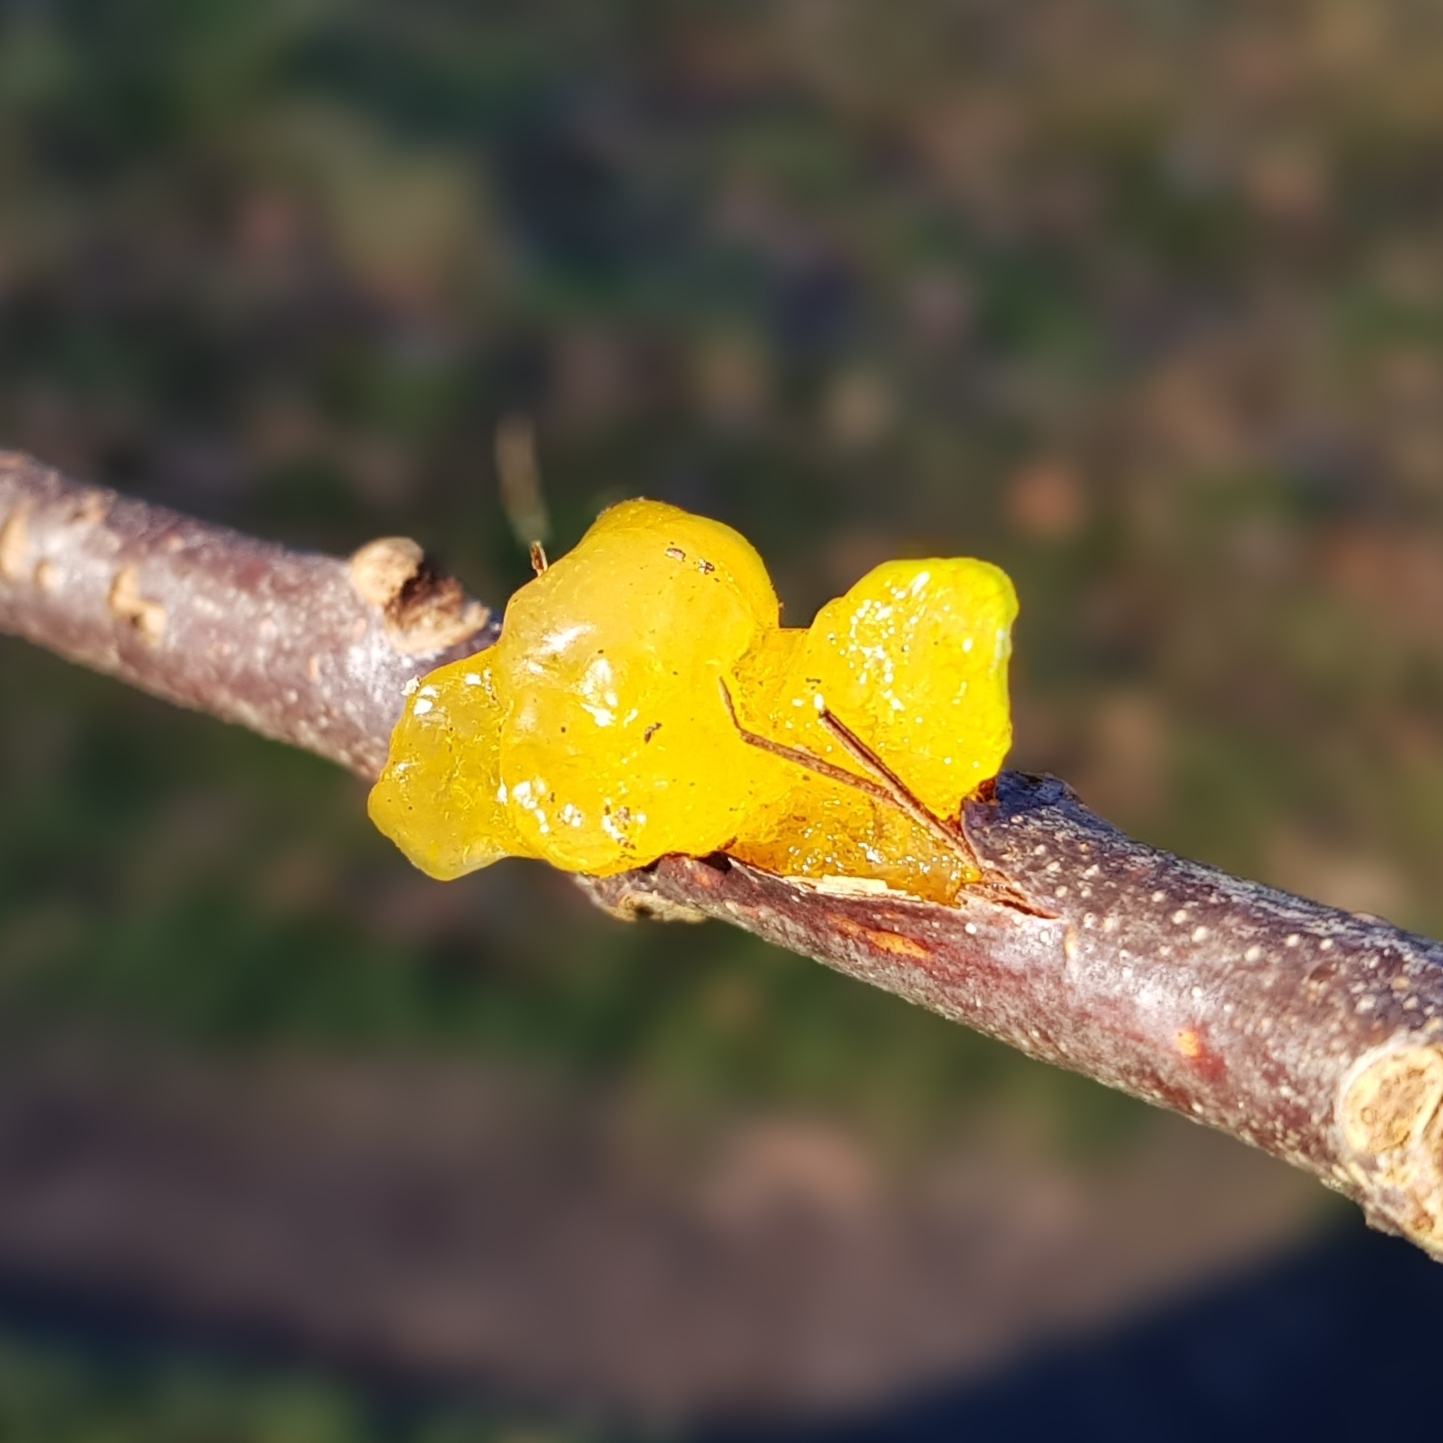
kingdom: Fungi
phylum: Basidiomycota
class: Tremellomycetes
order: Tremellales
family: Tremellaceae
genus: Tremella
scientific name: Tremella mesenterica
